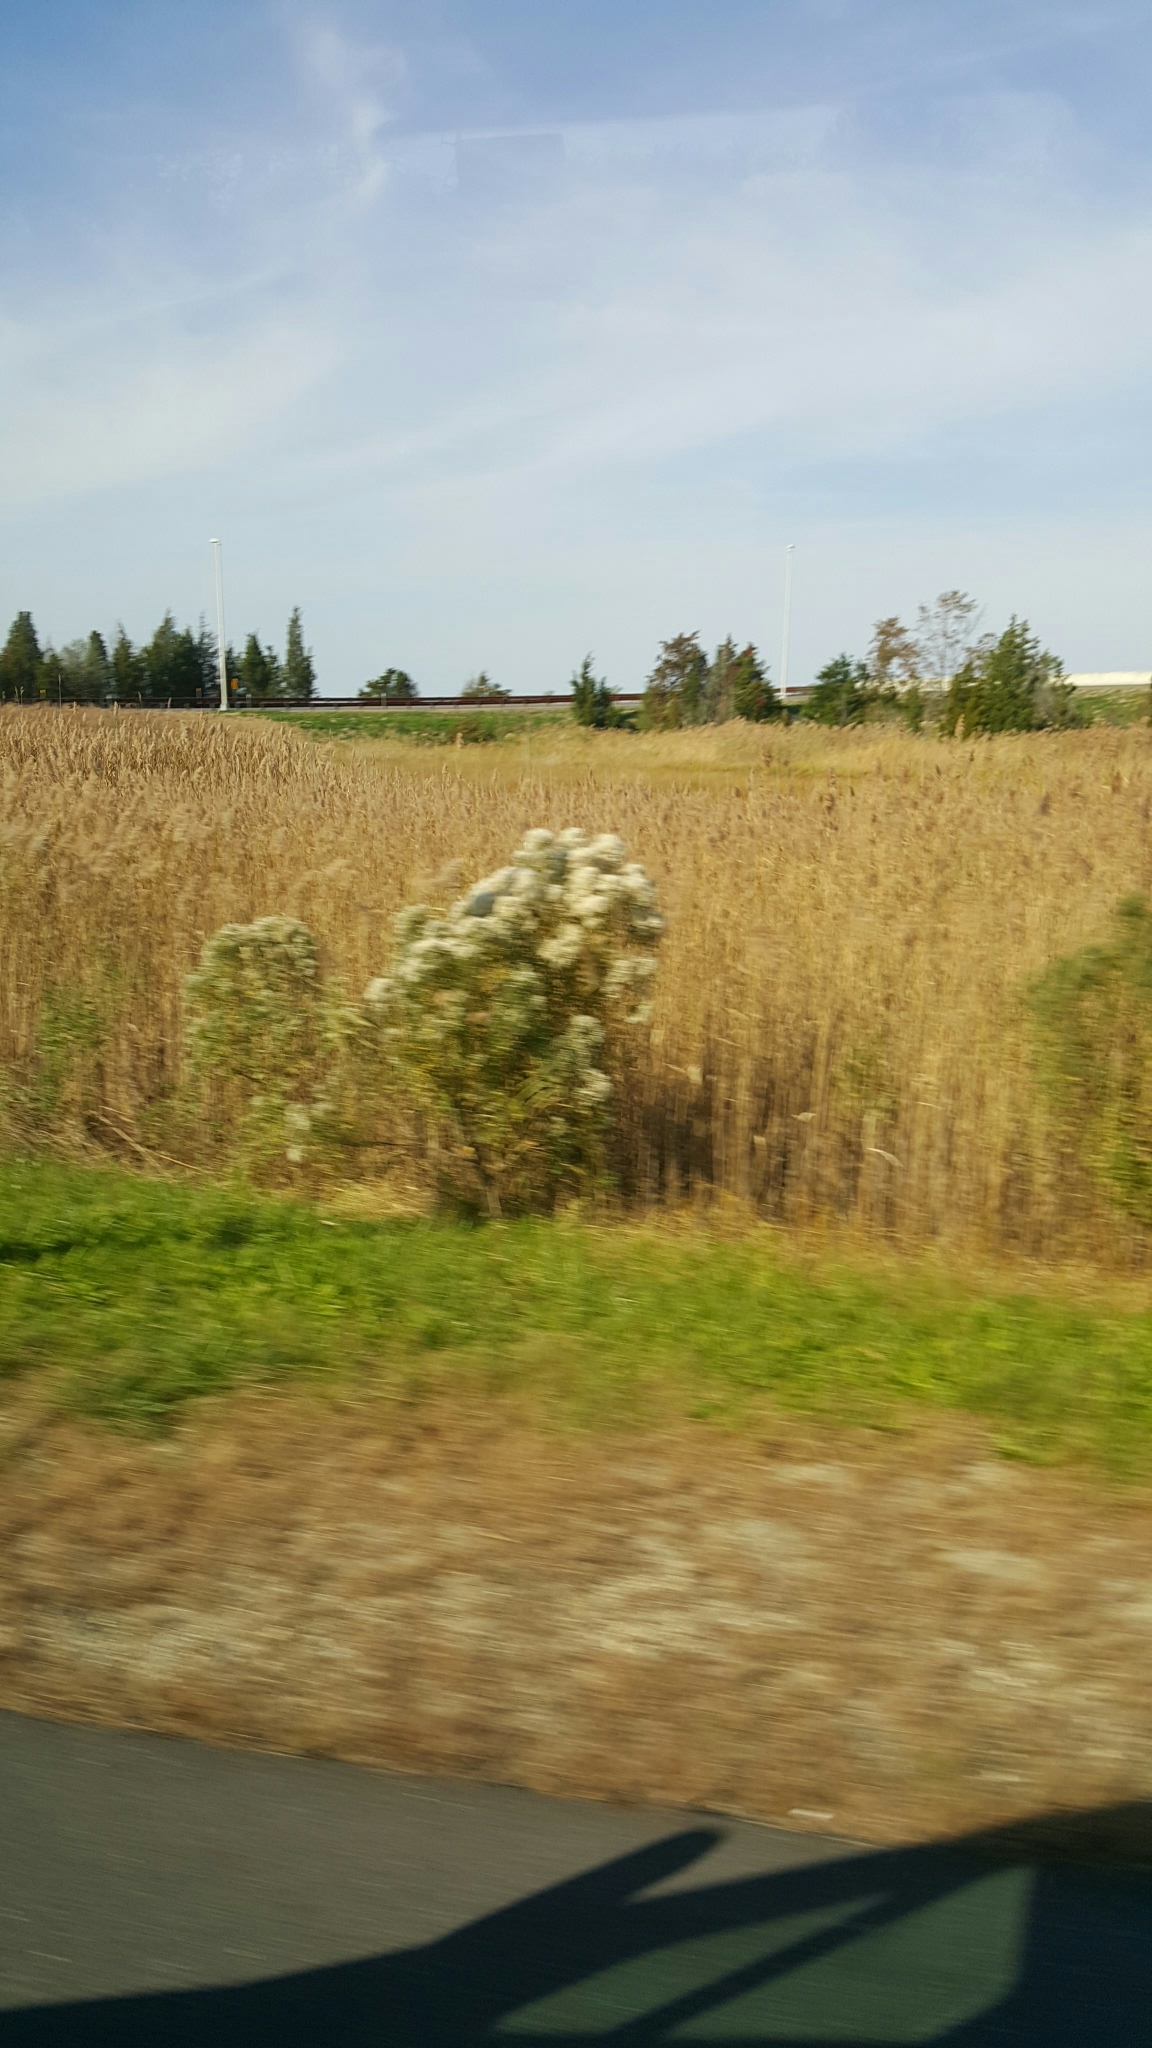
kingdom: Plantae
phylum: Tracheophyta
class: Magnoliopsida
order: Asterales
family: Asteraceae
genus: Baccharis
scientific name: Baccharis halimifolia
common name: Eastern baccharis
